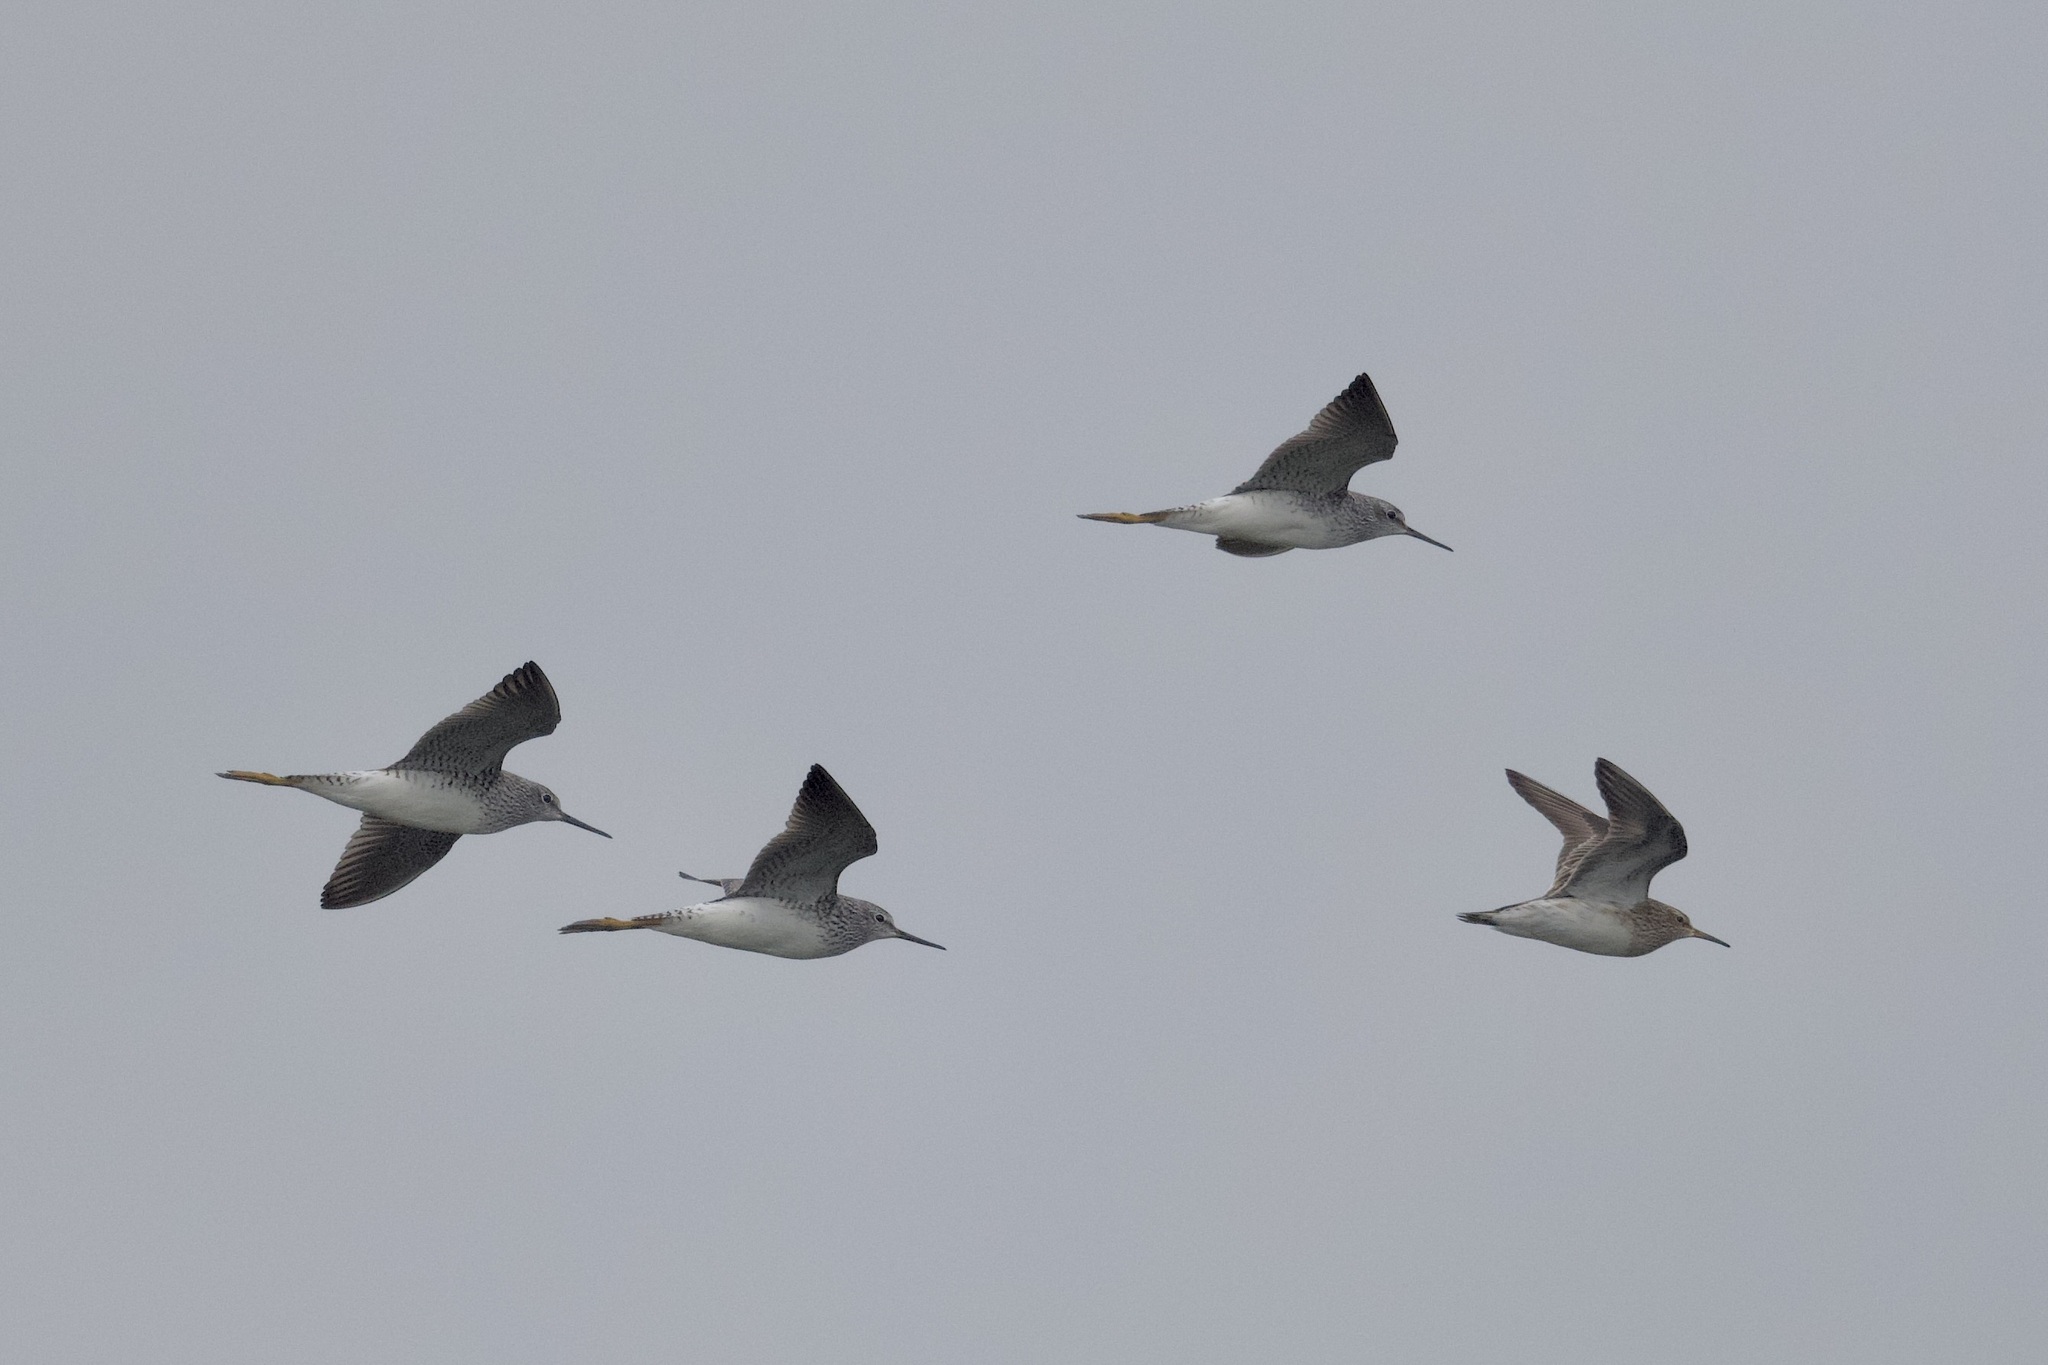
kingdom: Animalia
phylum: Chordata
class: Aves
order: Charadriiformes
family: Scolopacidae
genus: Calidris
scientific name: Calidris melanotos
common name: Pectoral sandpiper
